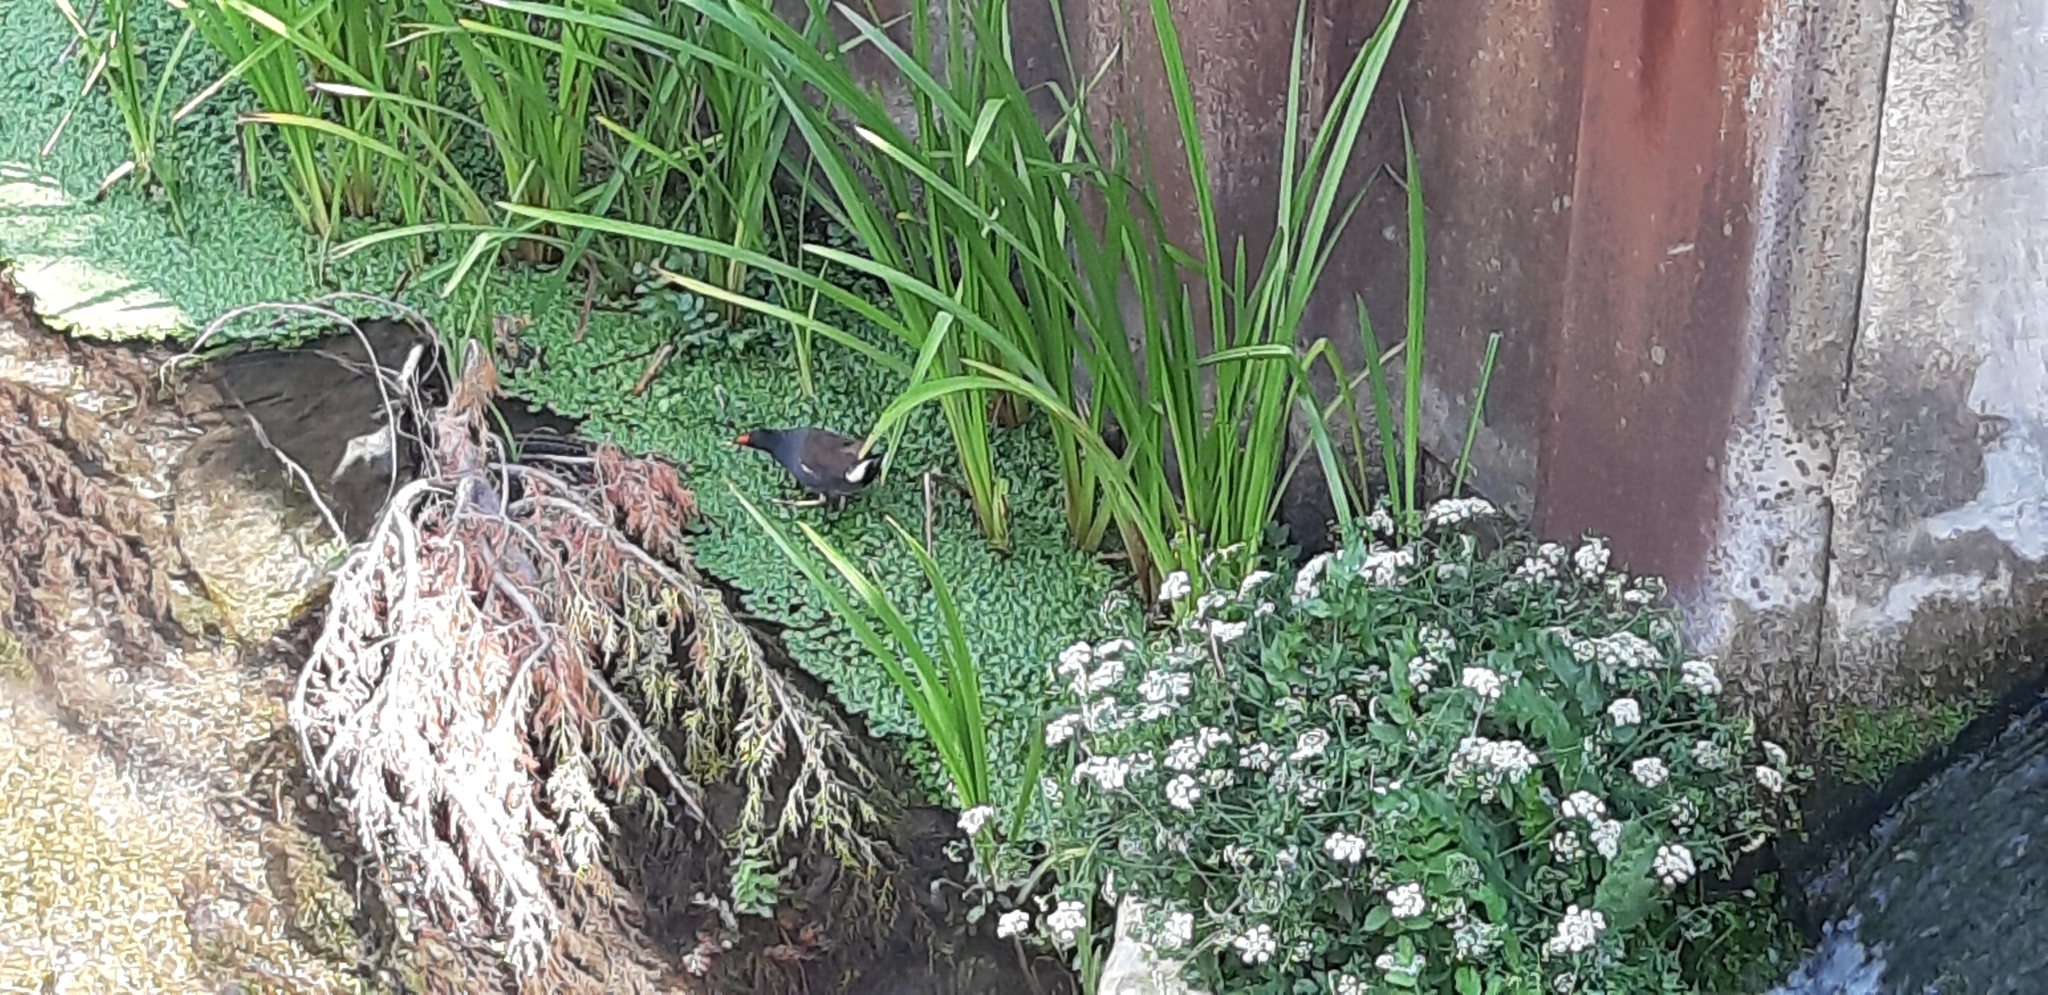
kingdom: Animalia
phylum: Chordata
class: Aves
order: Gruiformes
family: Rallidae
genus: Gallinula
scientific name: Gallinula chloropus
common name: Common moorhen
